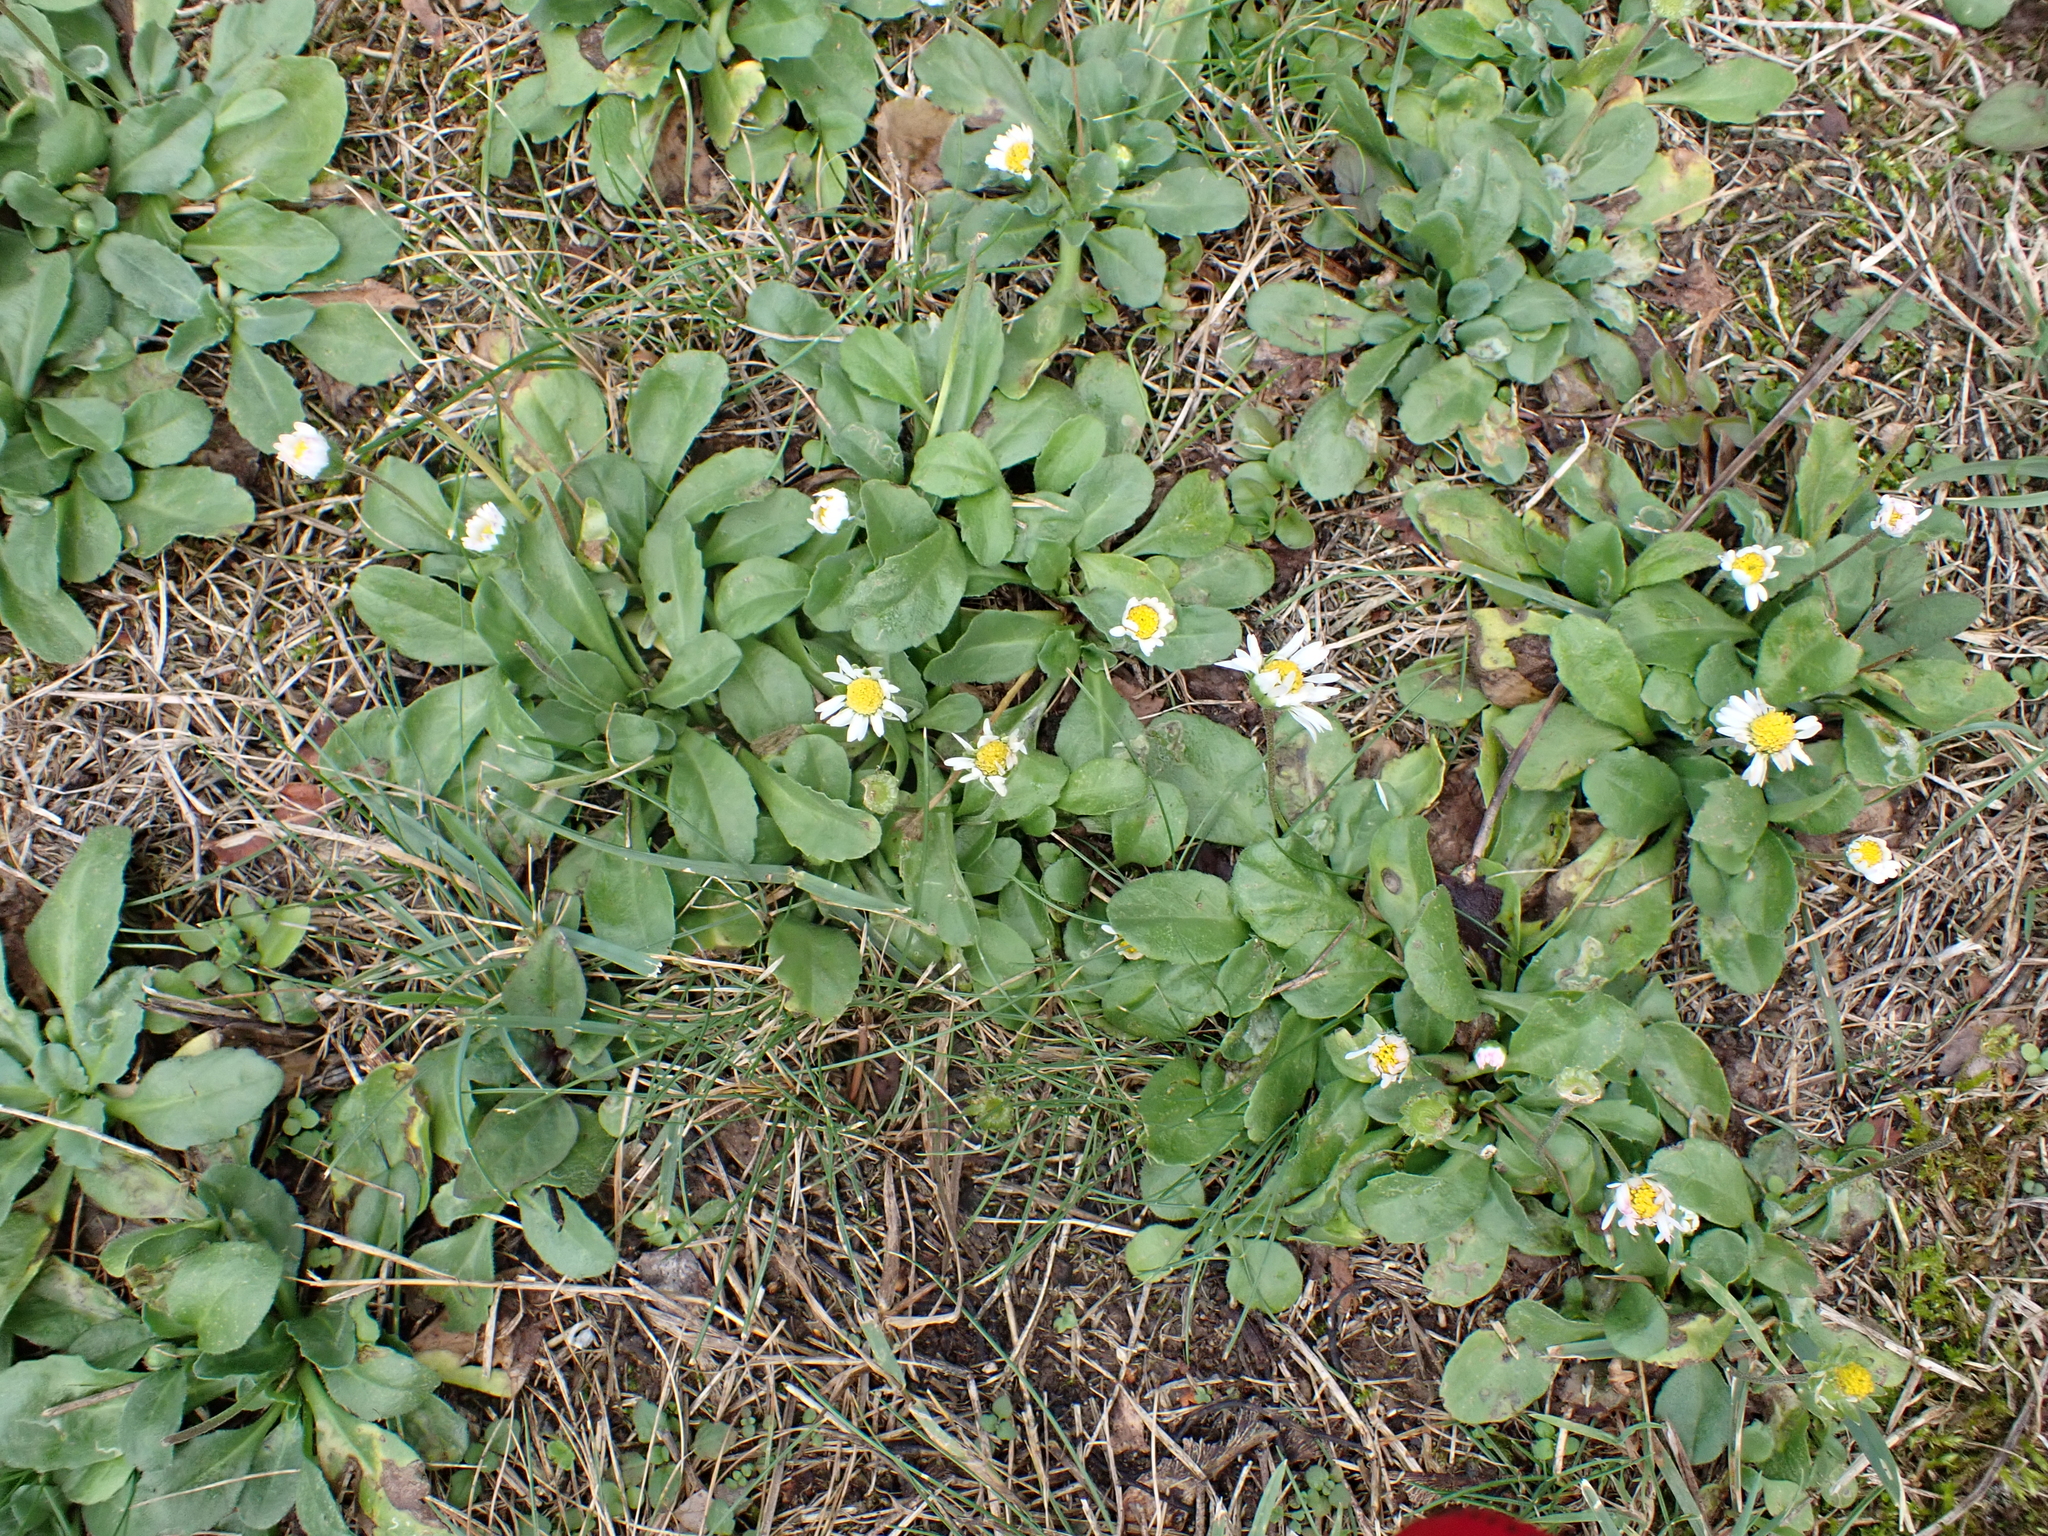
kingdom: Plantae
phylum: Tracheophyta
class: Magnoliopsida
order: Asterales
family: Asteraceae
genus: Bellis
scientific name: Bellis perennis
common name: Lawndaisy
